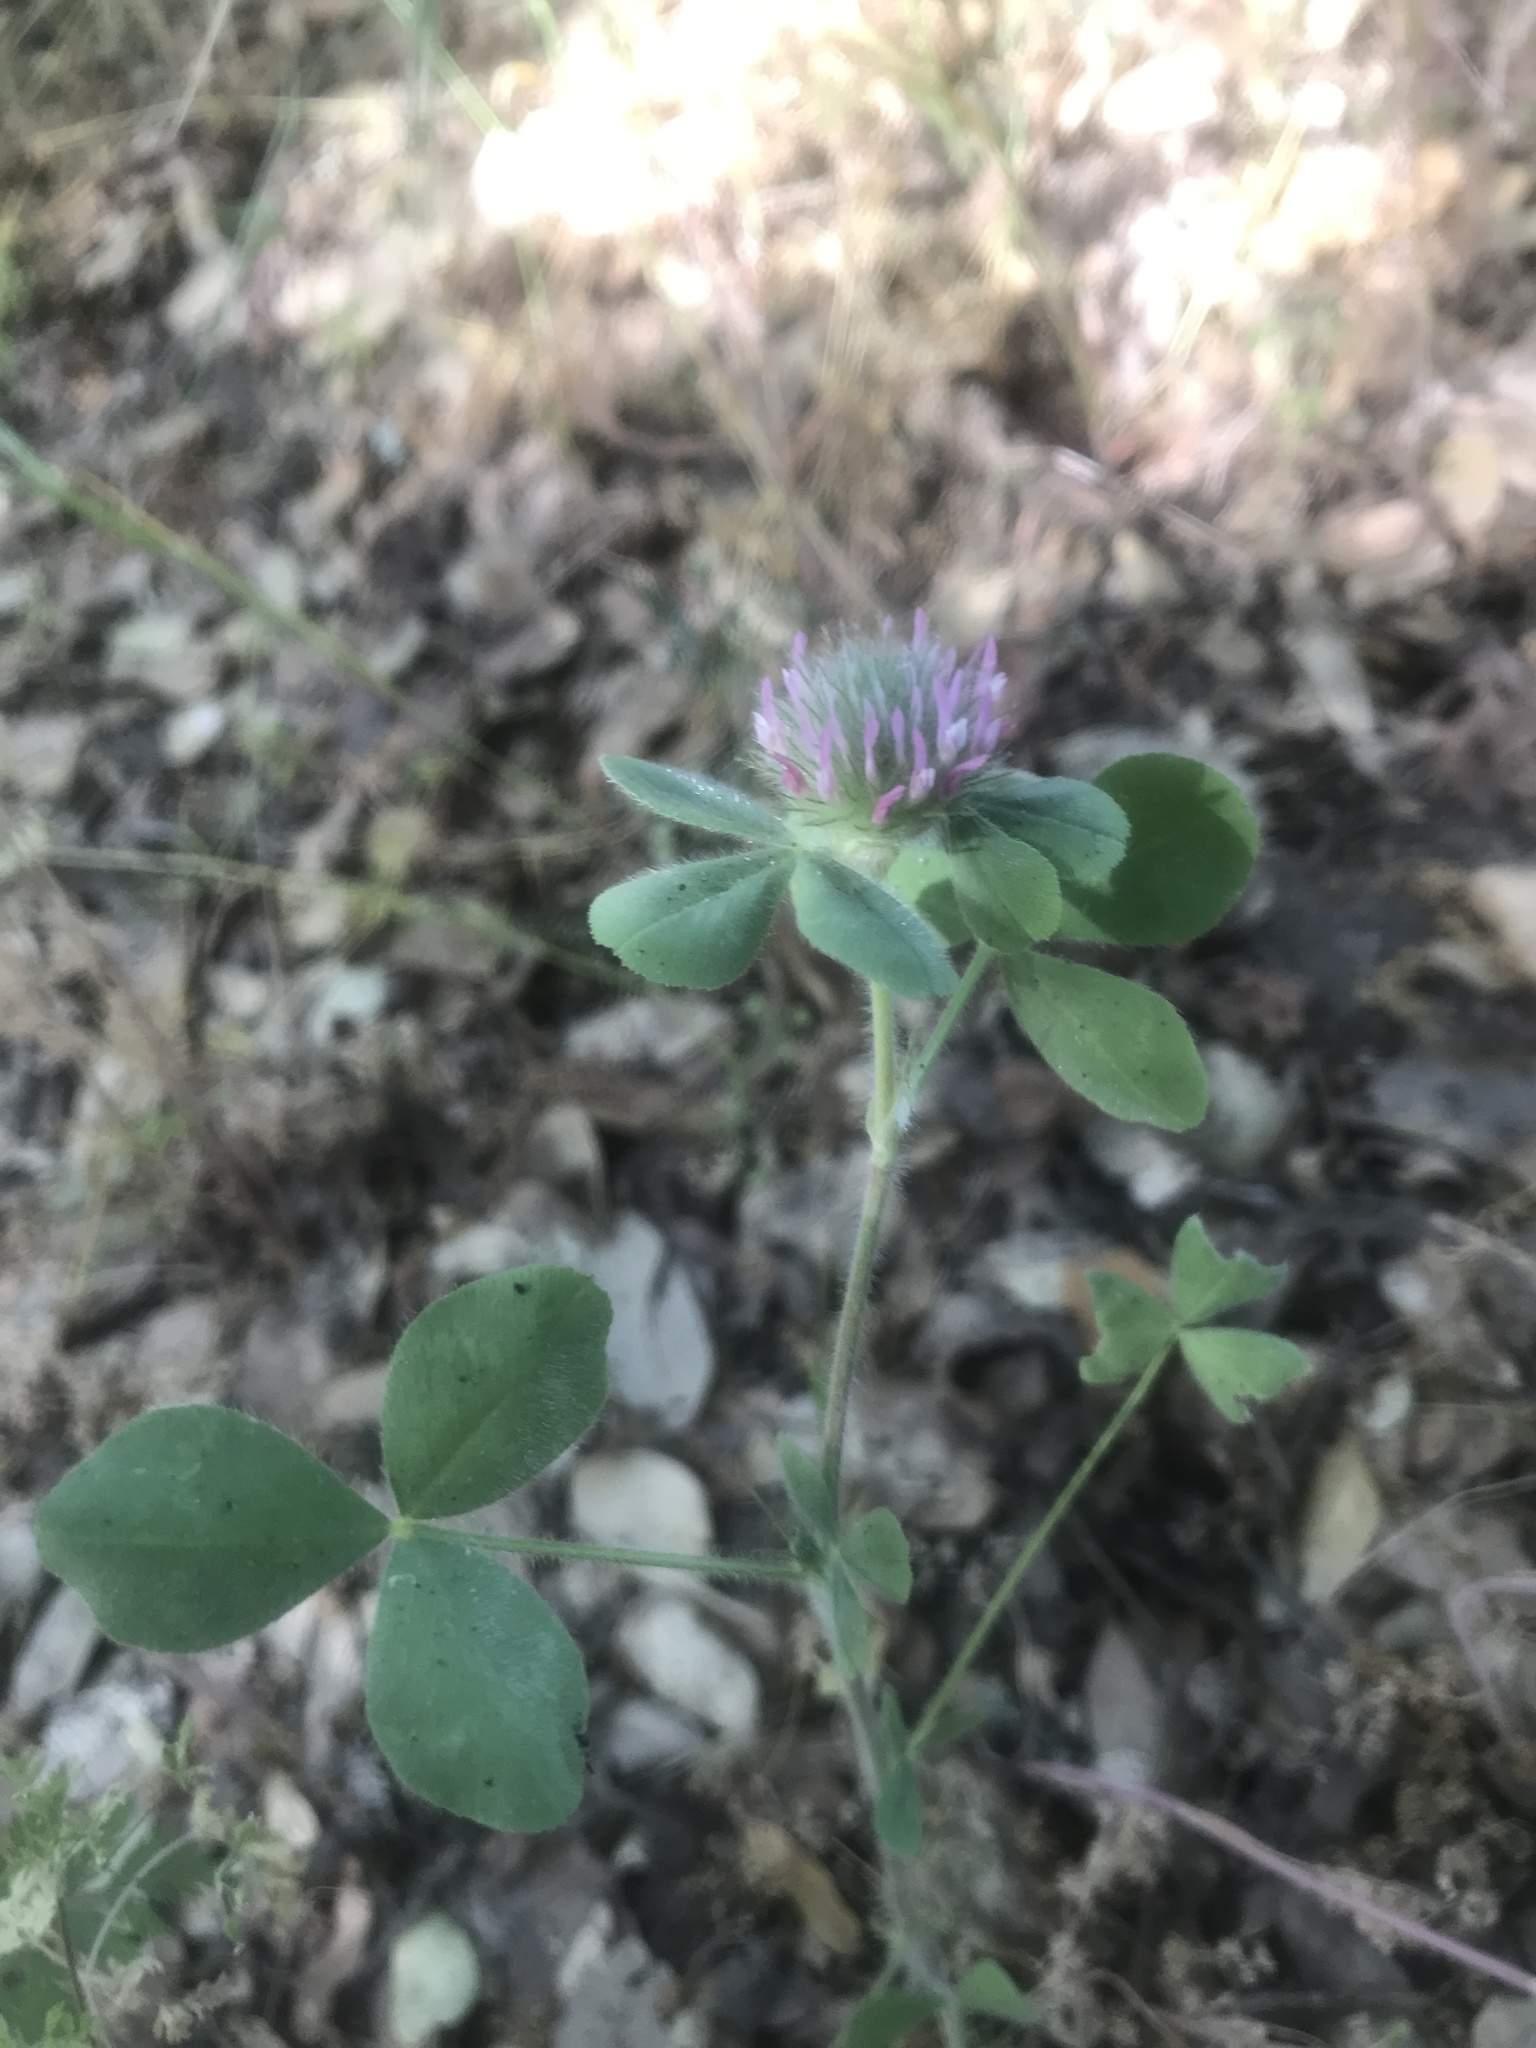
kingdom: Plantae
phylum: Tracheophyta
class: Magnoliopsida
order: Fabales
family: Fabaceae
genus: Trifolium
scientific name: Trifolium hirtum
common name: Rose clover
